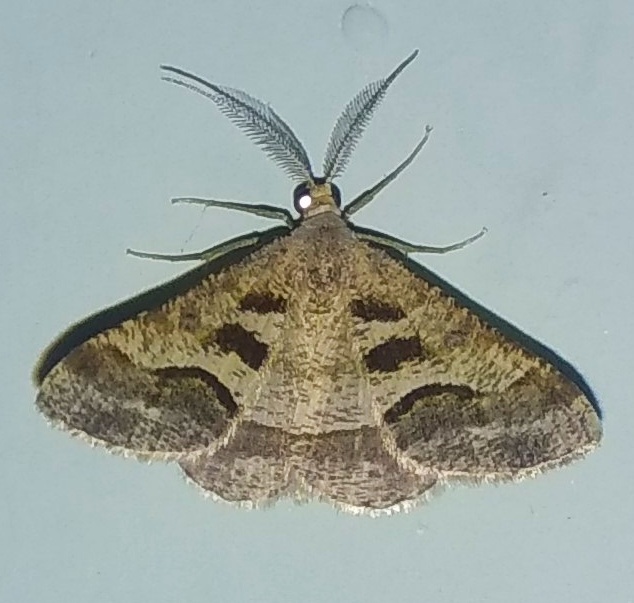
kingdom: Animalia
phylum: Arthropoda
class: Insecta
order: Lepidoptera
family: Geometridae
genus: Isturgia
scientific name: Isturgia disputaria
